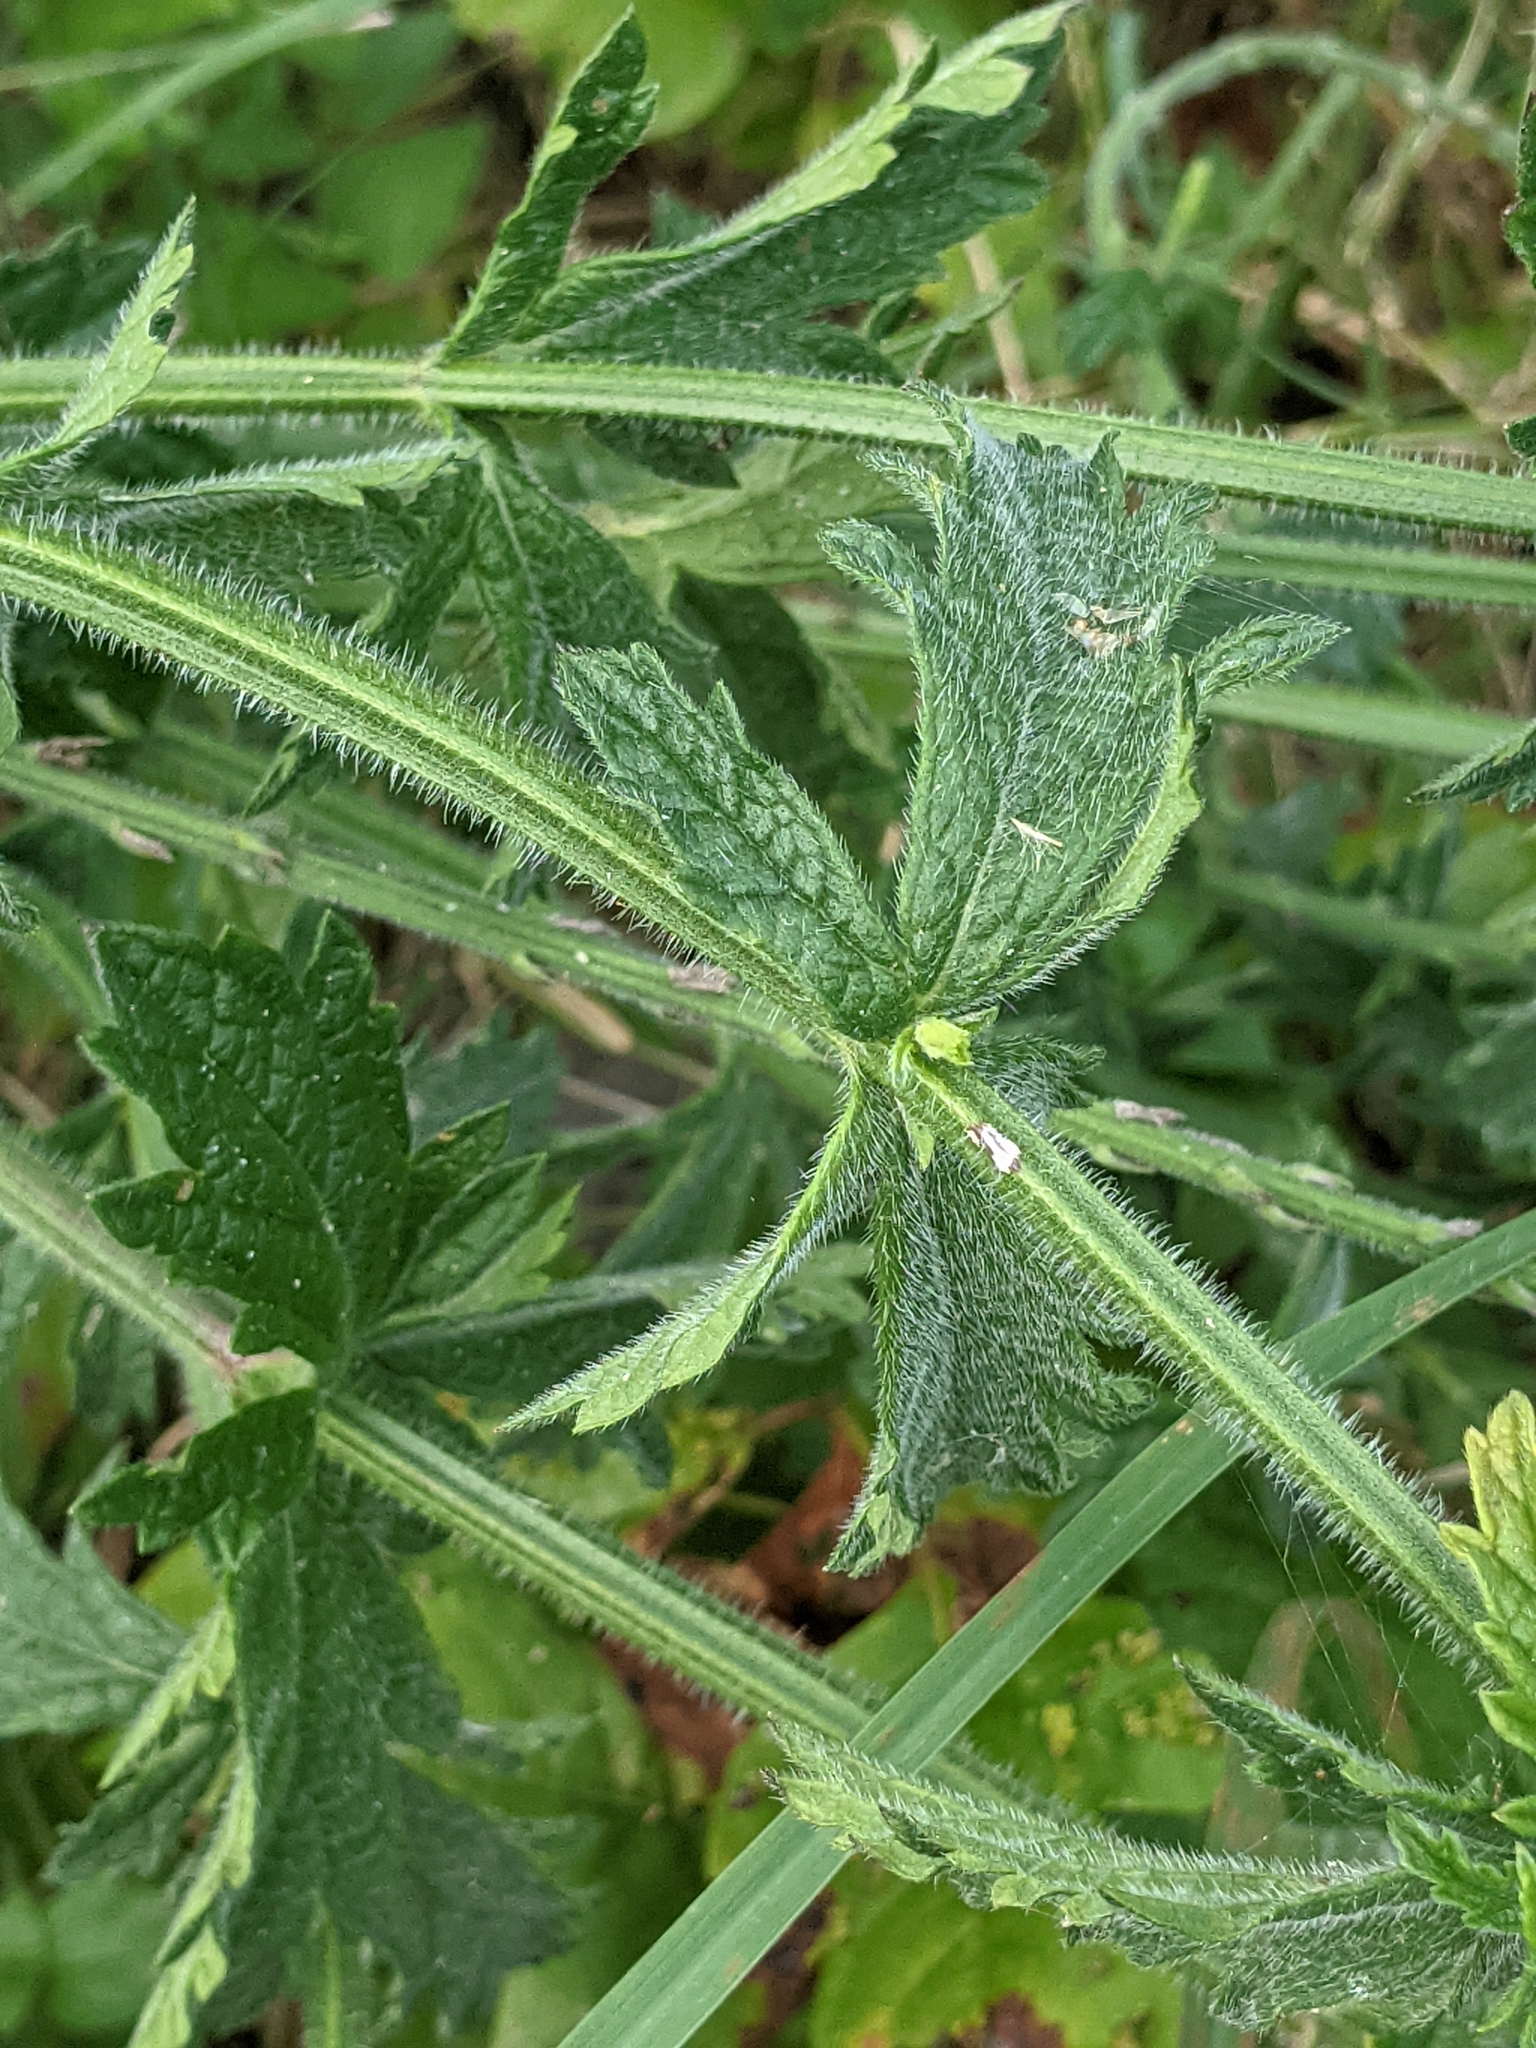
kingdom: Plantae
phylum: Tracheophyta
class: Magnoliopsida
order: Lamiales
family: Verbenaceae
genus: Verbena
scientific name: Verbena xutha
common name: Gulf vervain
